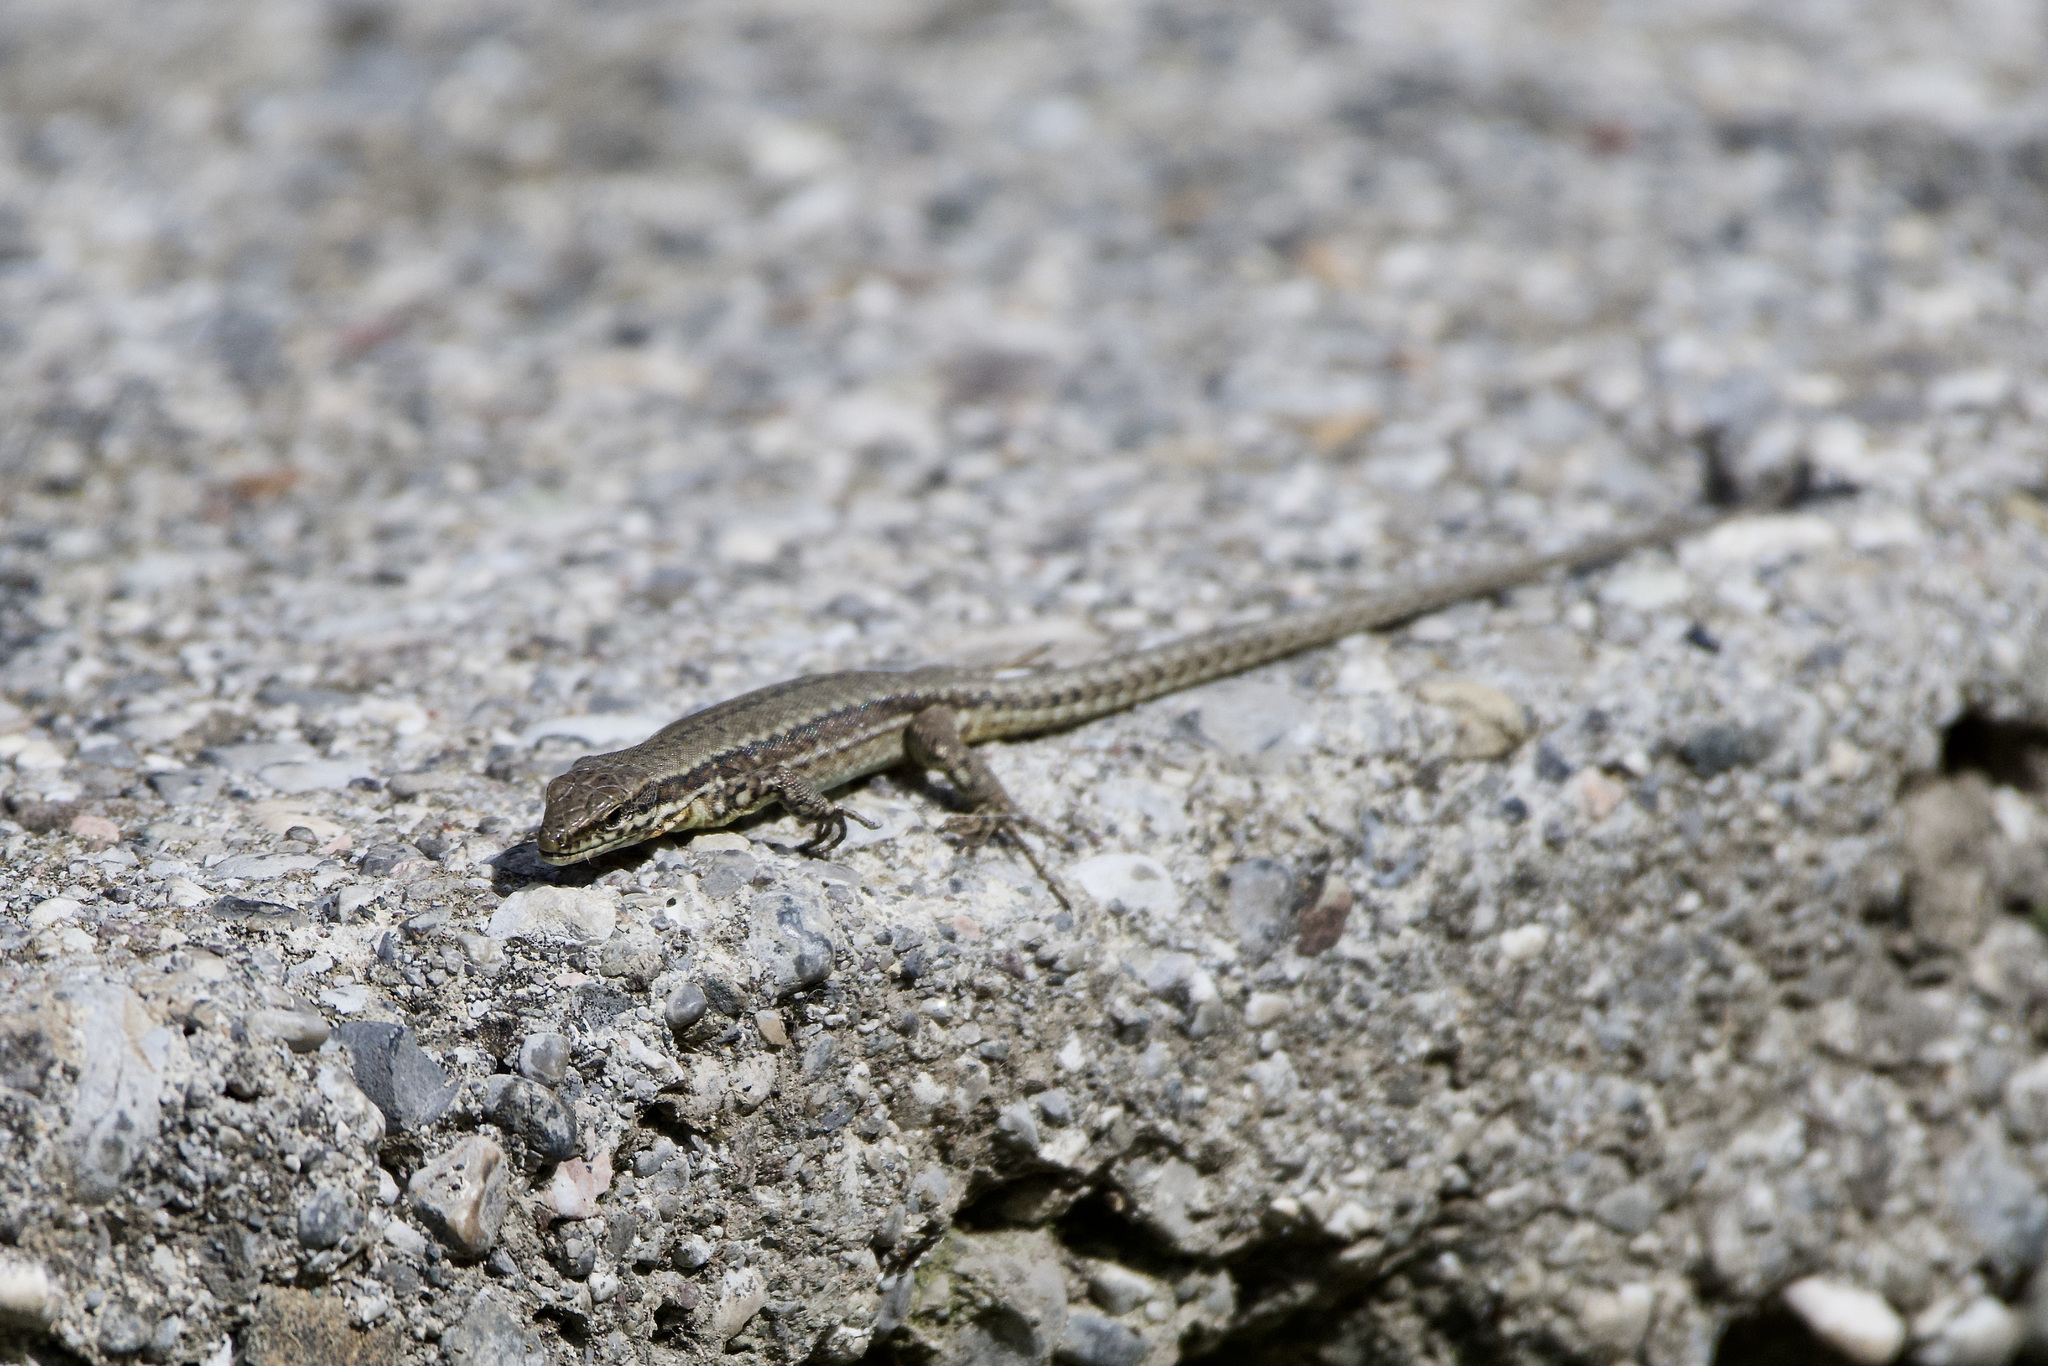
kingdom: Animalia
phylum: Chordata
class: Squamata
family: Lacertidae
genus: Podarcis
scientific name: Podarcis muralis
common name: Common wall lizard
